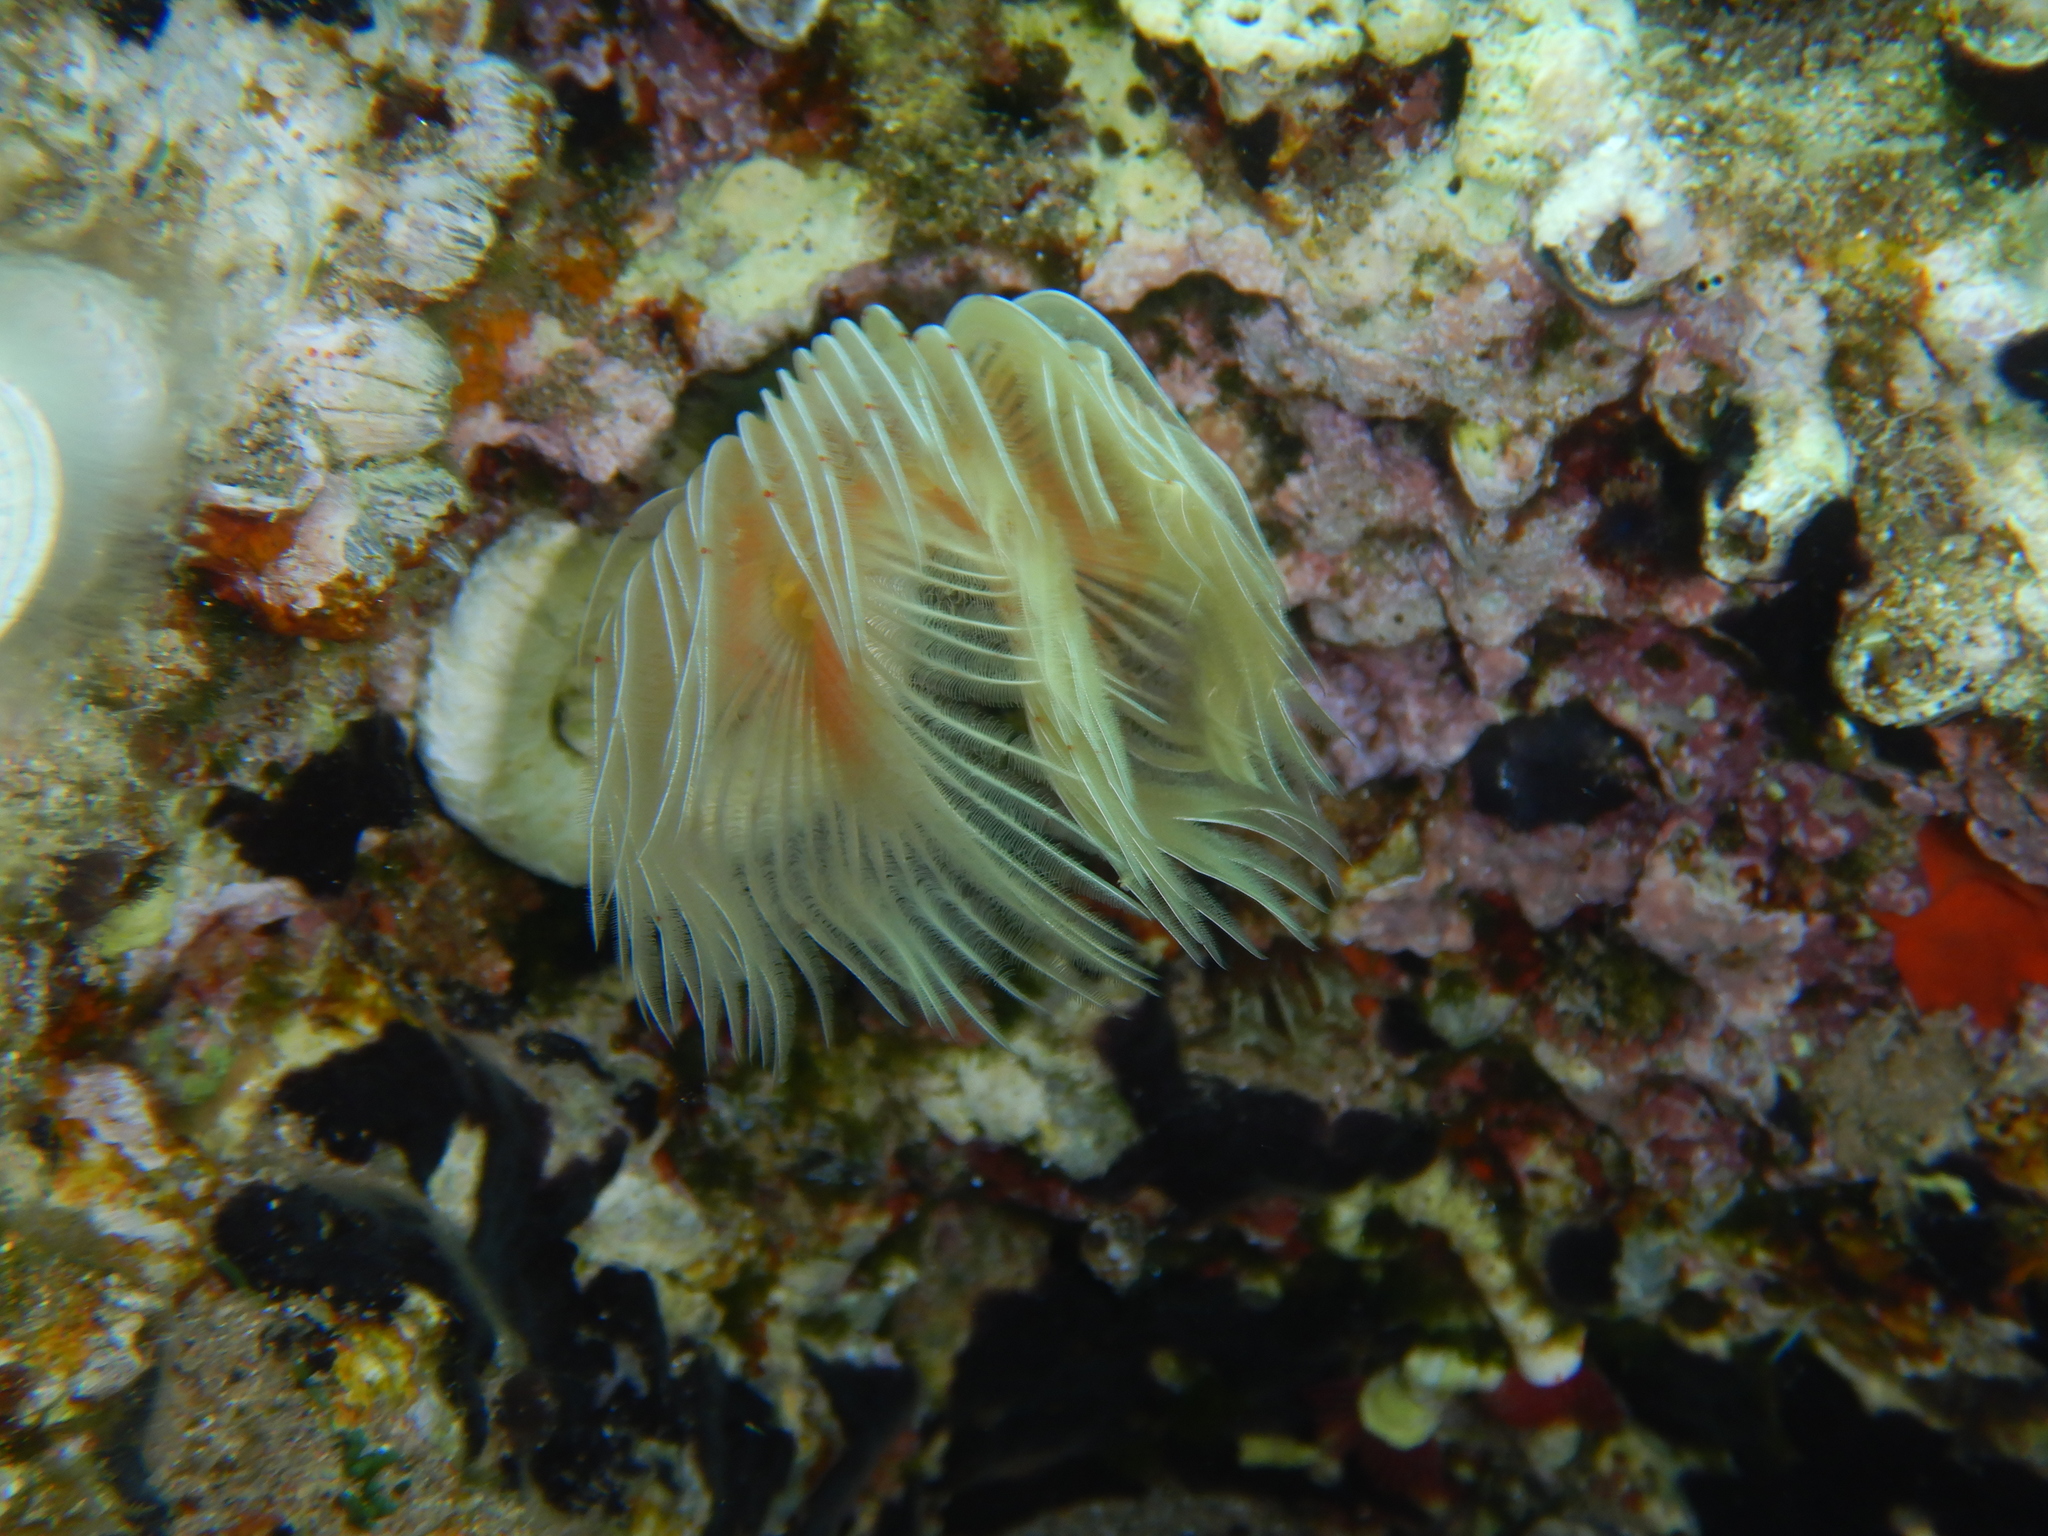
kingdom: Animalia
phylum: Annelida
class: Polychaeta
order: Sabellida
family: Serpulidae
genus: Protula
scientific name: Protula tubularia
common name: Red-spotted horseshoe
